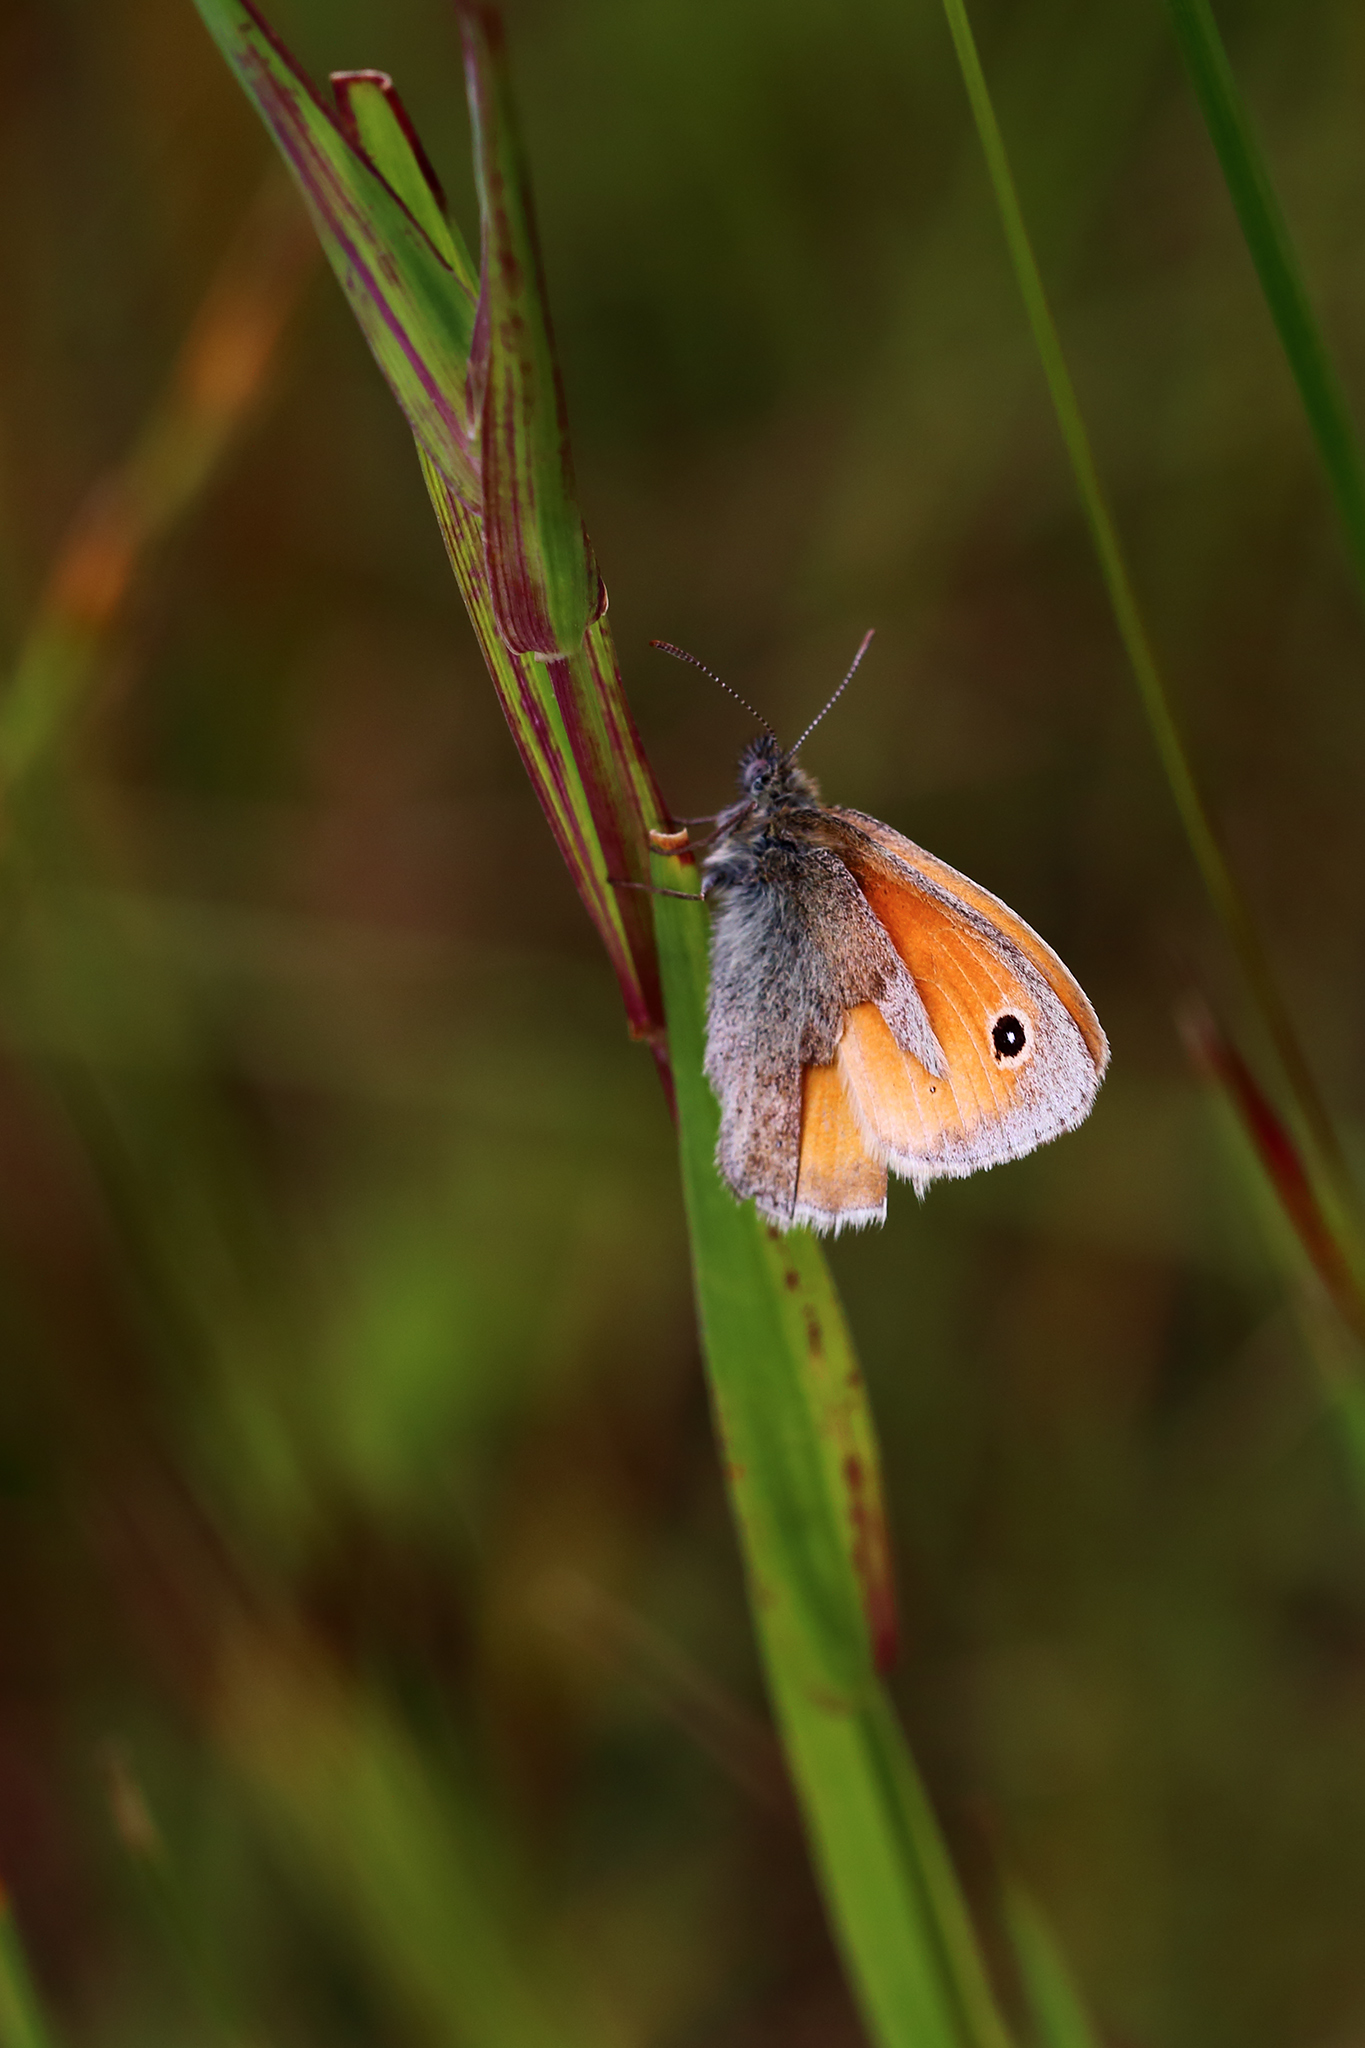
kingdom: Animalia
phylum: Arthropoda
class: Insecta
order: Lepidoptera
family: Nymphalidae
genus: Coenonympha
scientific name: Coenonympha pamphilus
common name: Small heath
